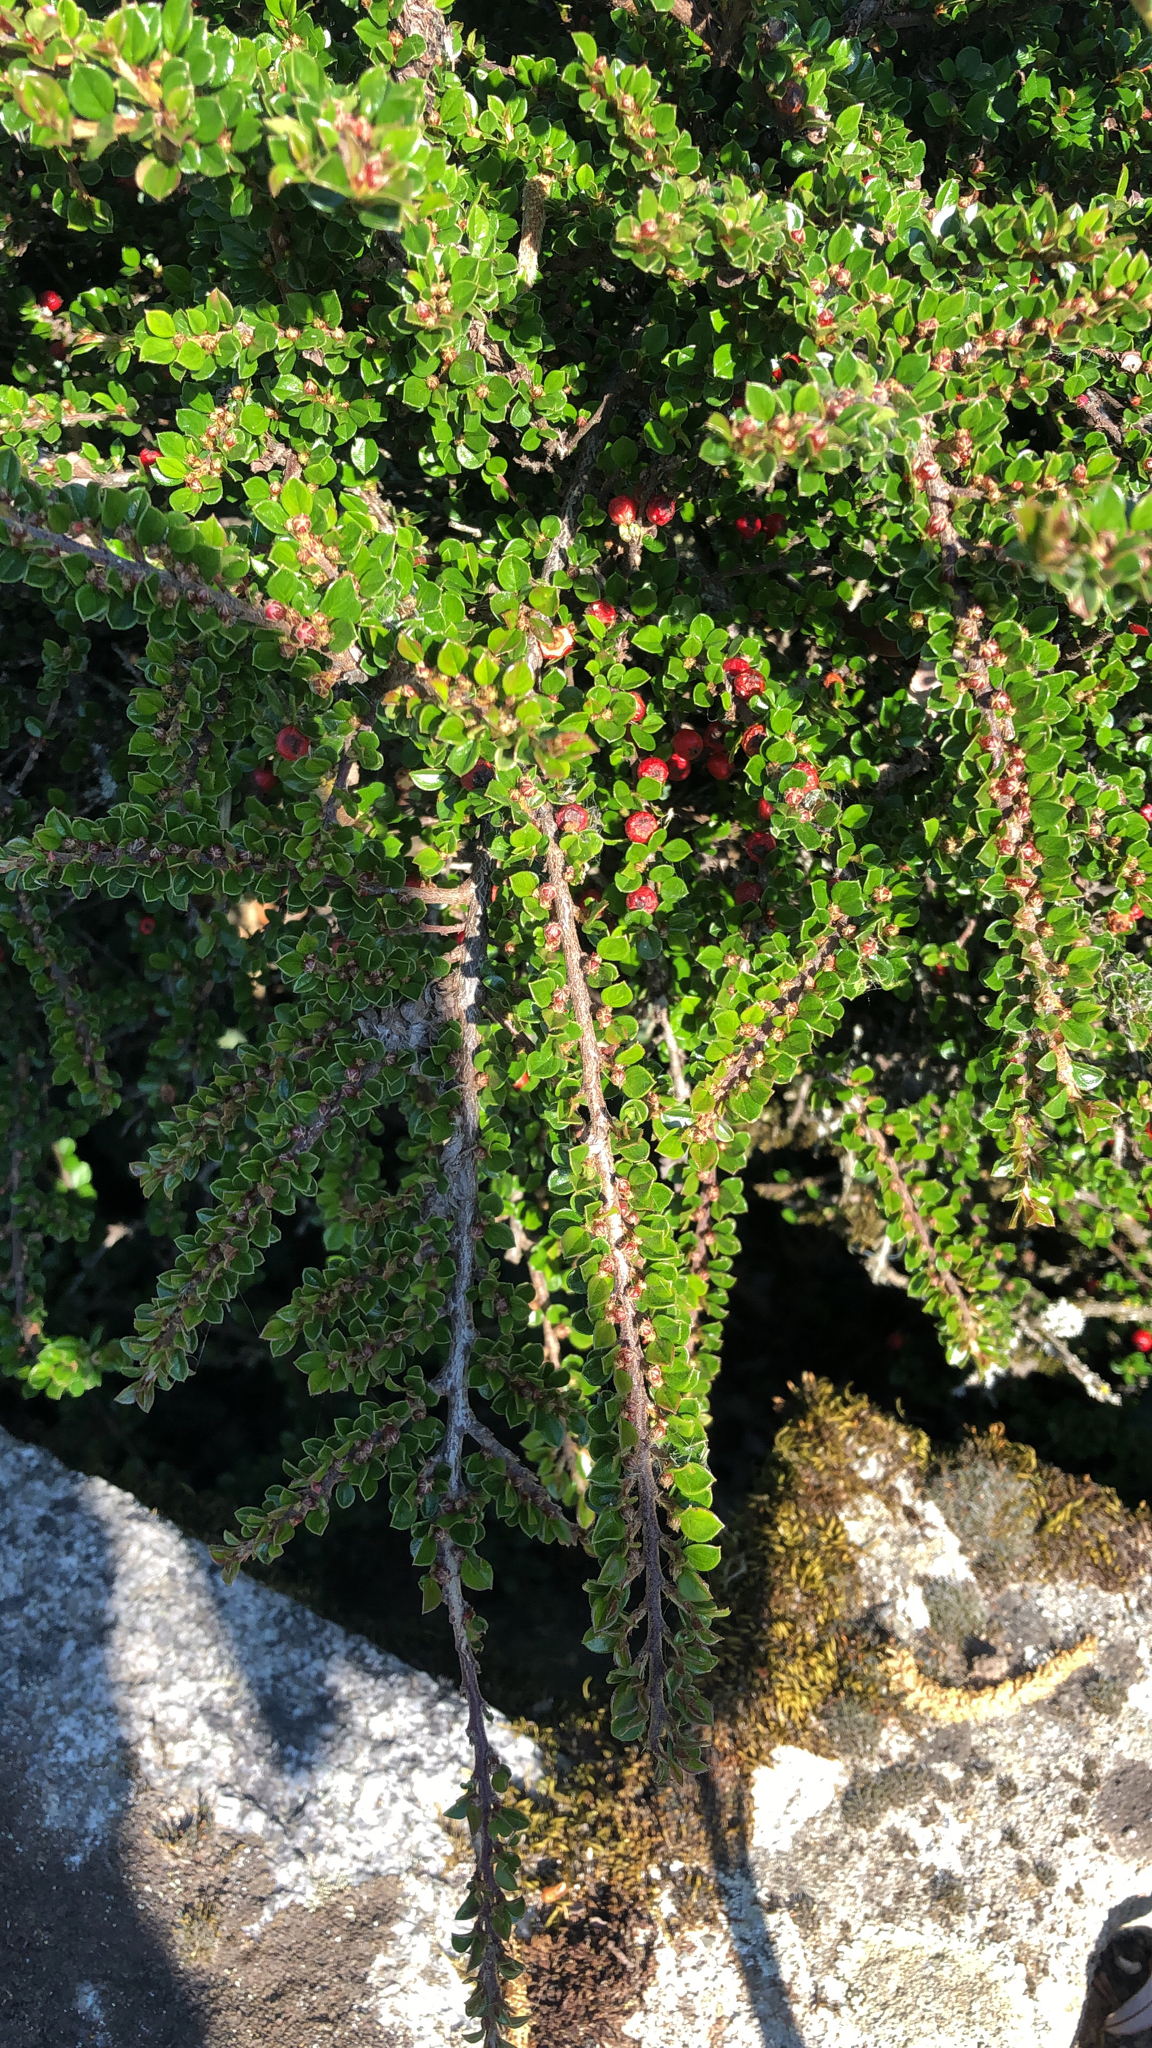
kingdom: Plantae
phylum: Tracheophyta
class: Magnoliopsida
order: Rosales
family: Rosaceae
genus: Cotoneaster
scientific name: Cotoneaster horizontalis
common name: Wall cotoneaster
